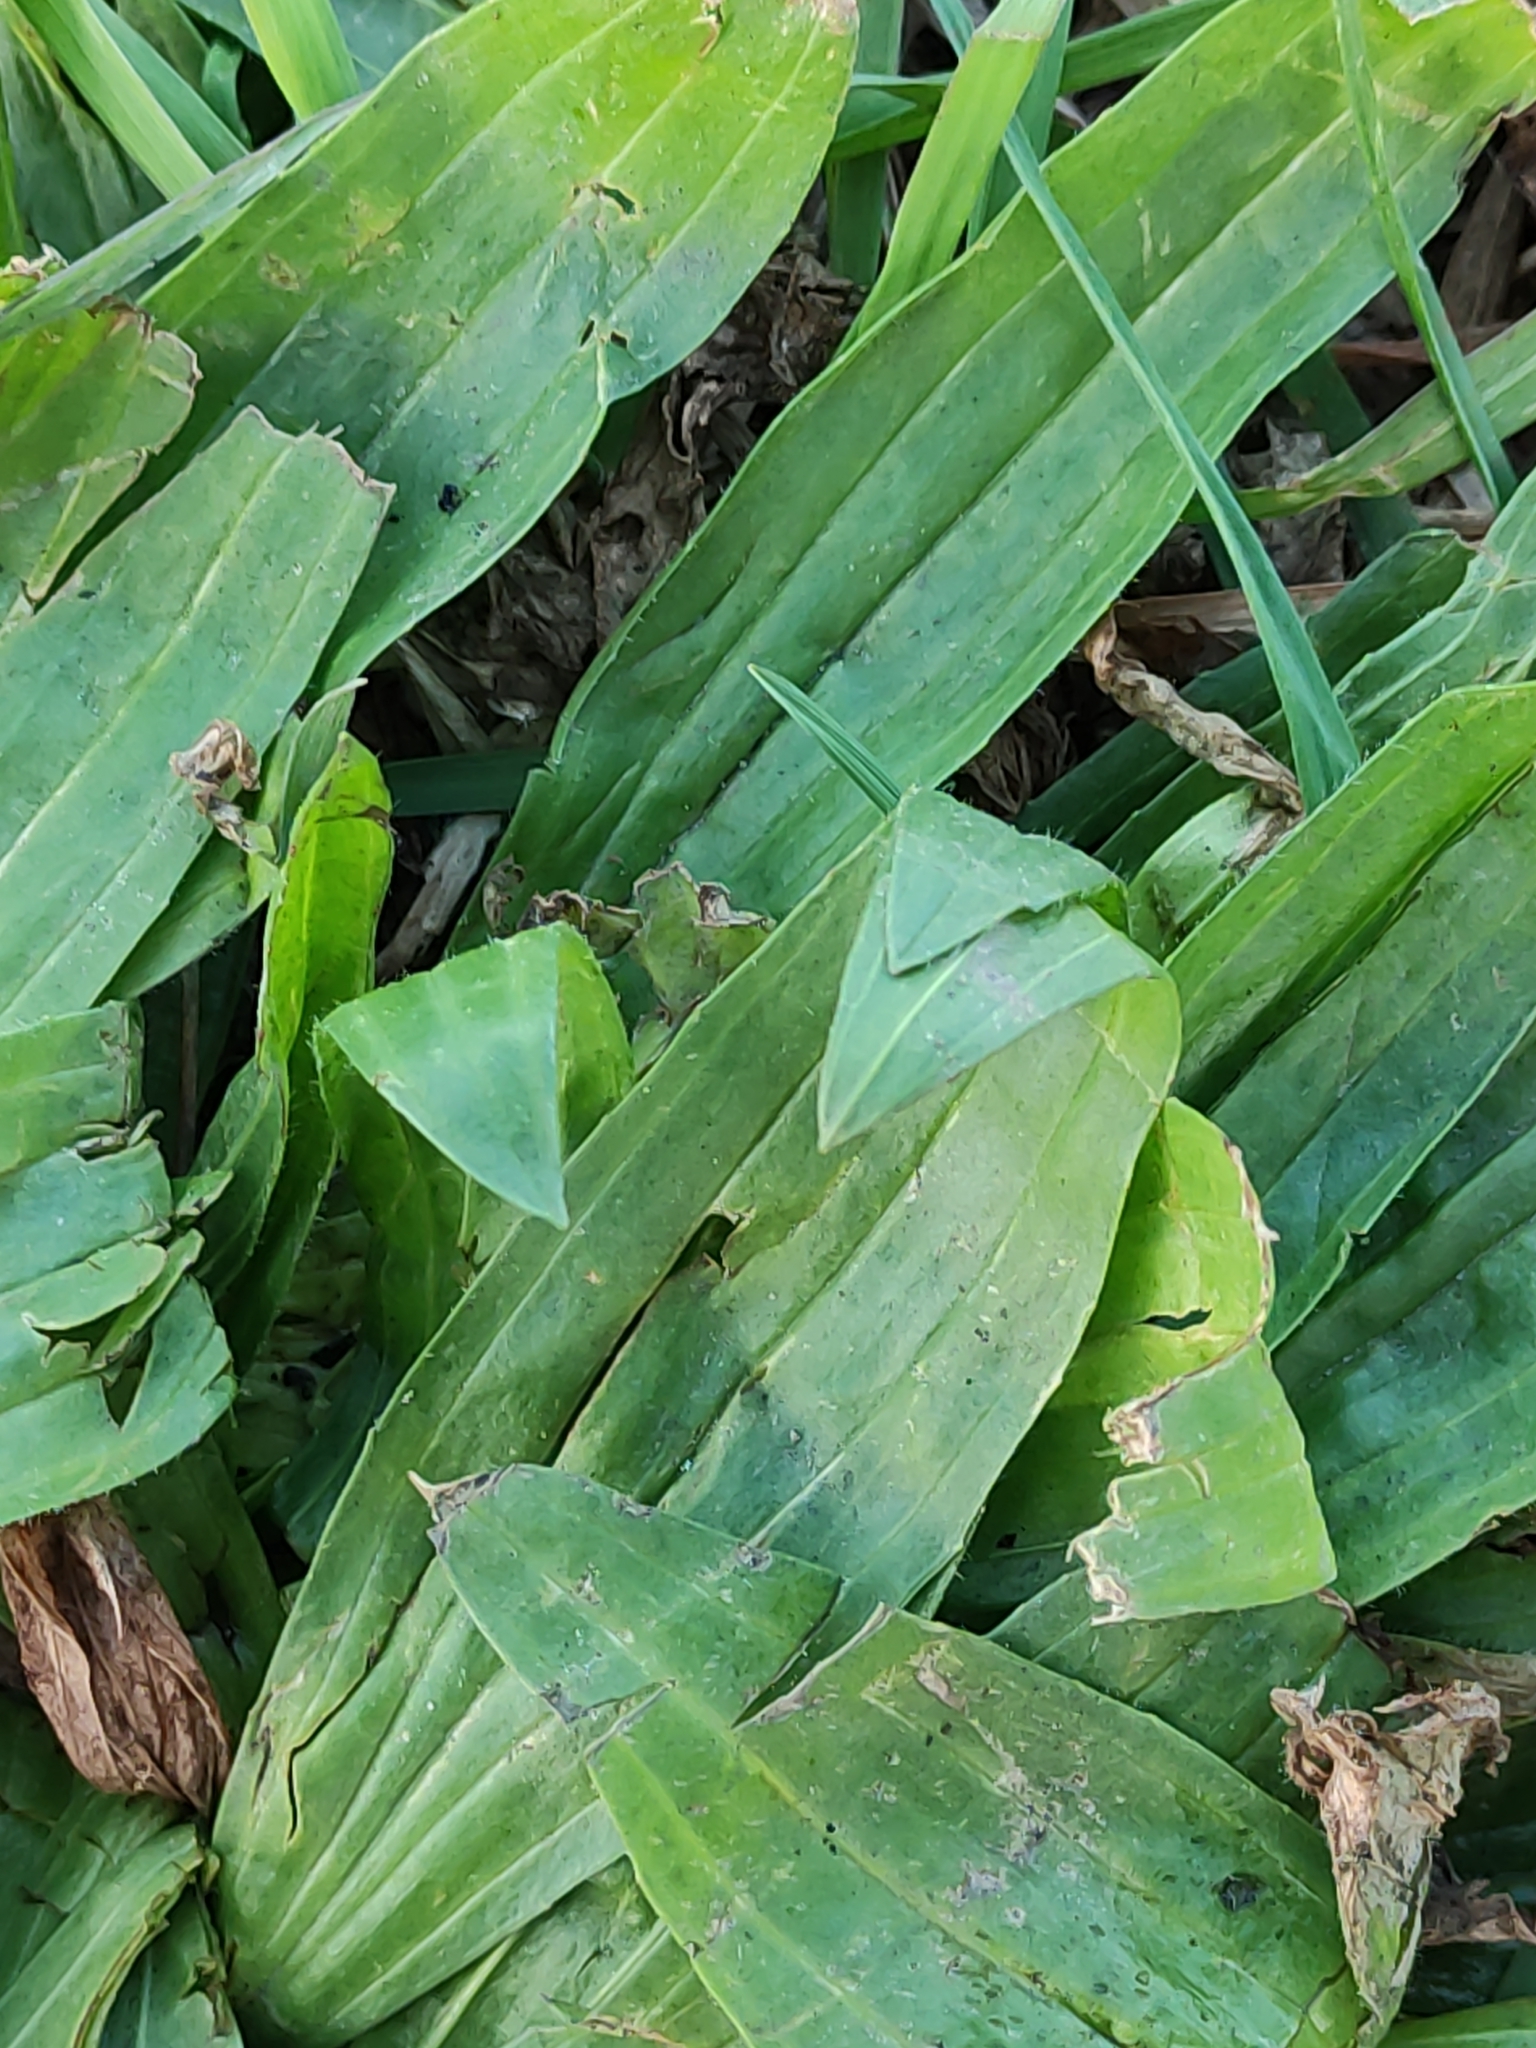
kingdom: Plantae
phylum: Tracheophyta
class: Magnoliopsida
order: Lamiales
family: Plantaginaceae
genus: Plantago
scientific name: Plantago lanceolata
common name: Ribwort plantain
